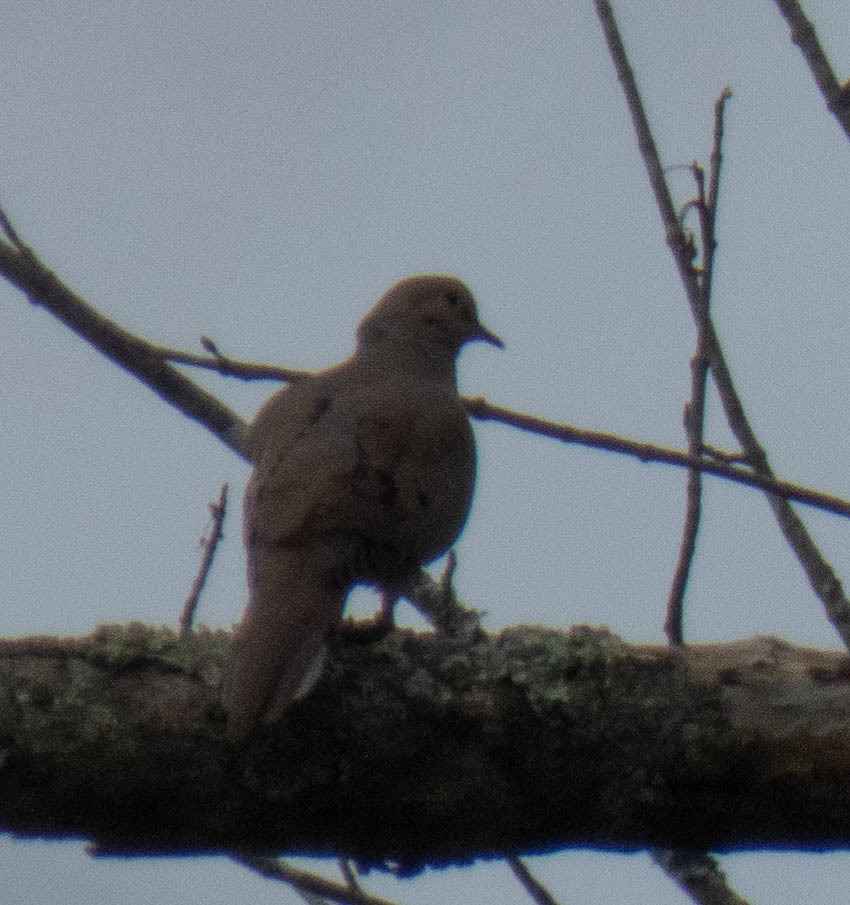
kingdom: Animalia
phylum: Chordata
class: Aves
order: Columbiformes
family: Columbidae
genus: Zenaida
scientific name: Zenaida macroura
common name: Mourning dove
